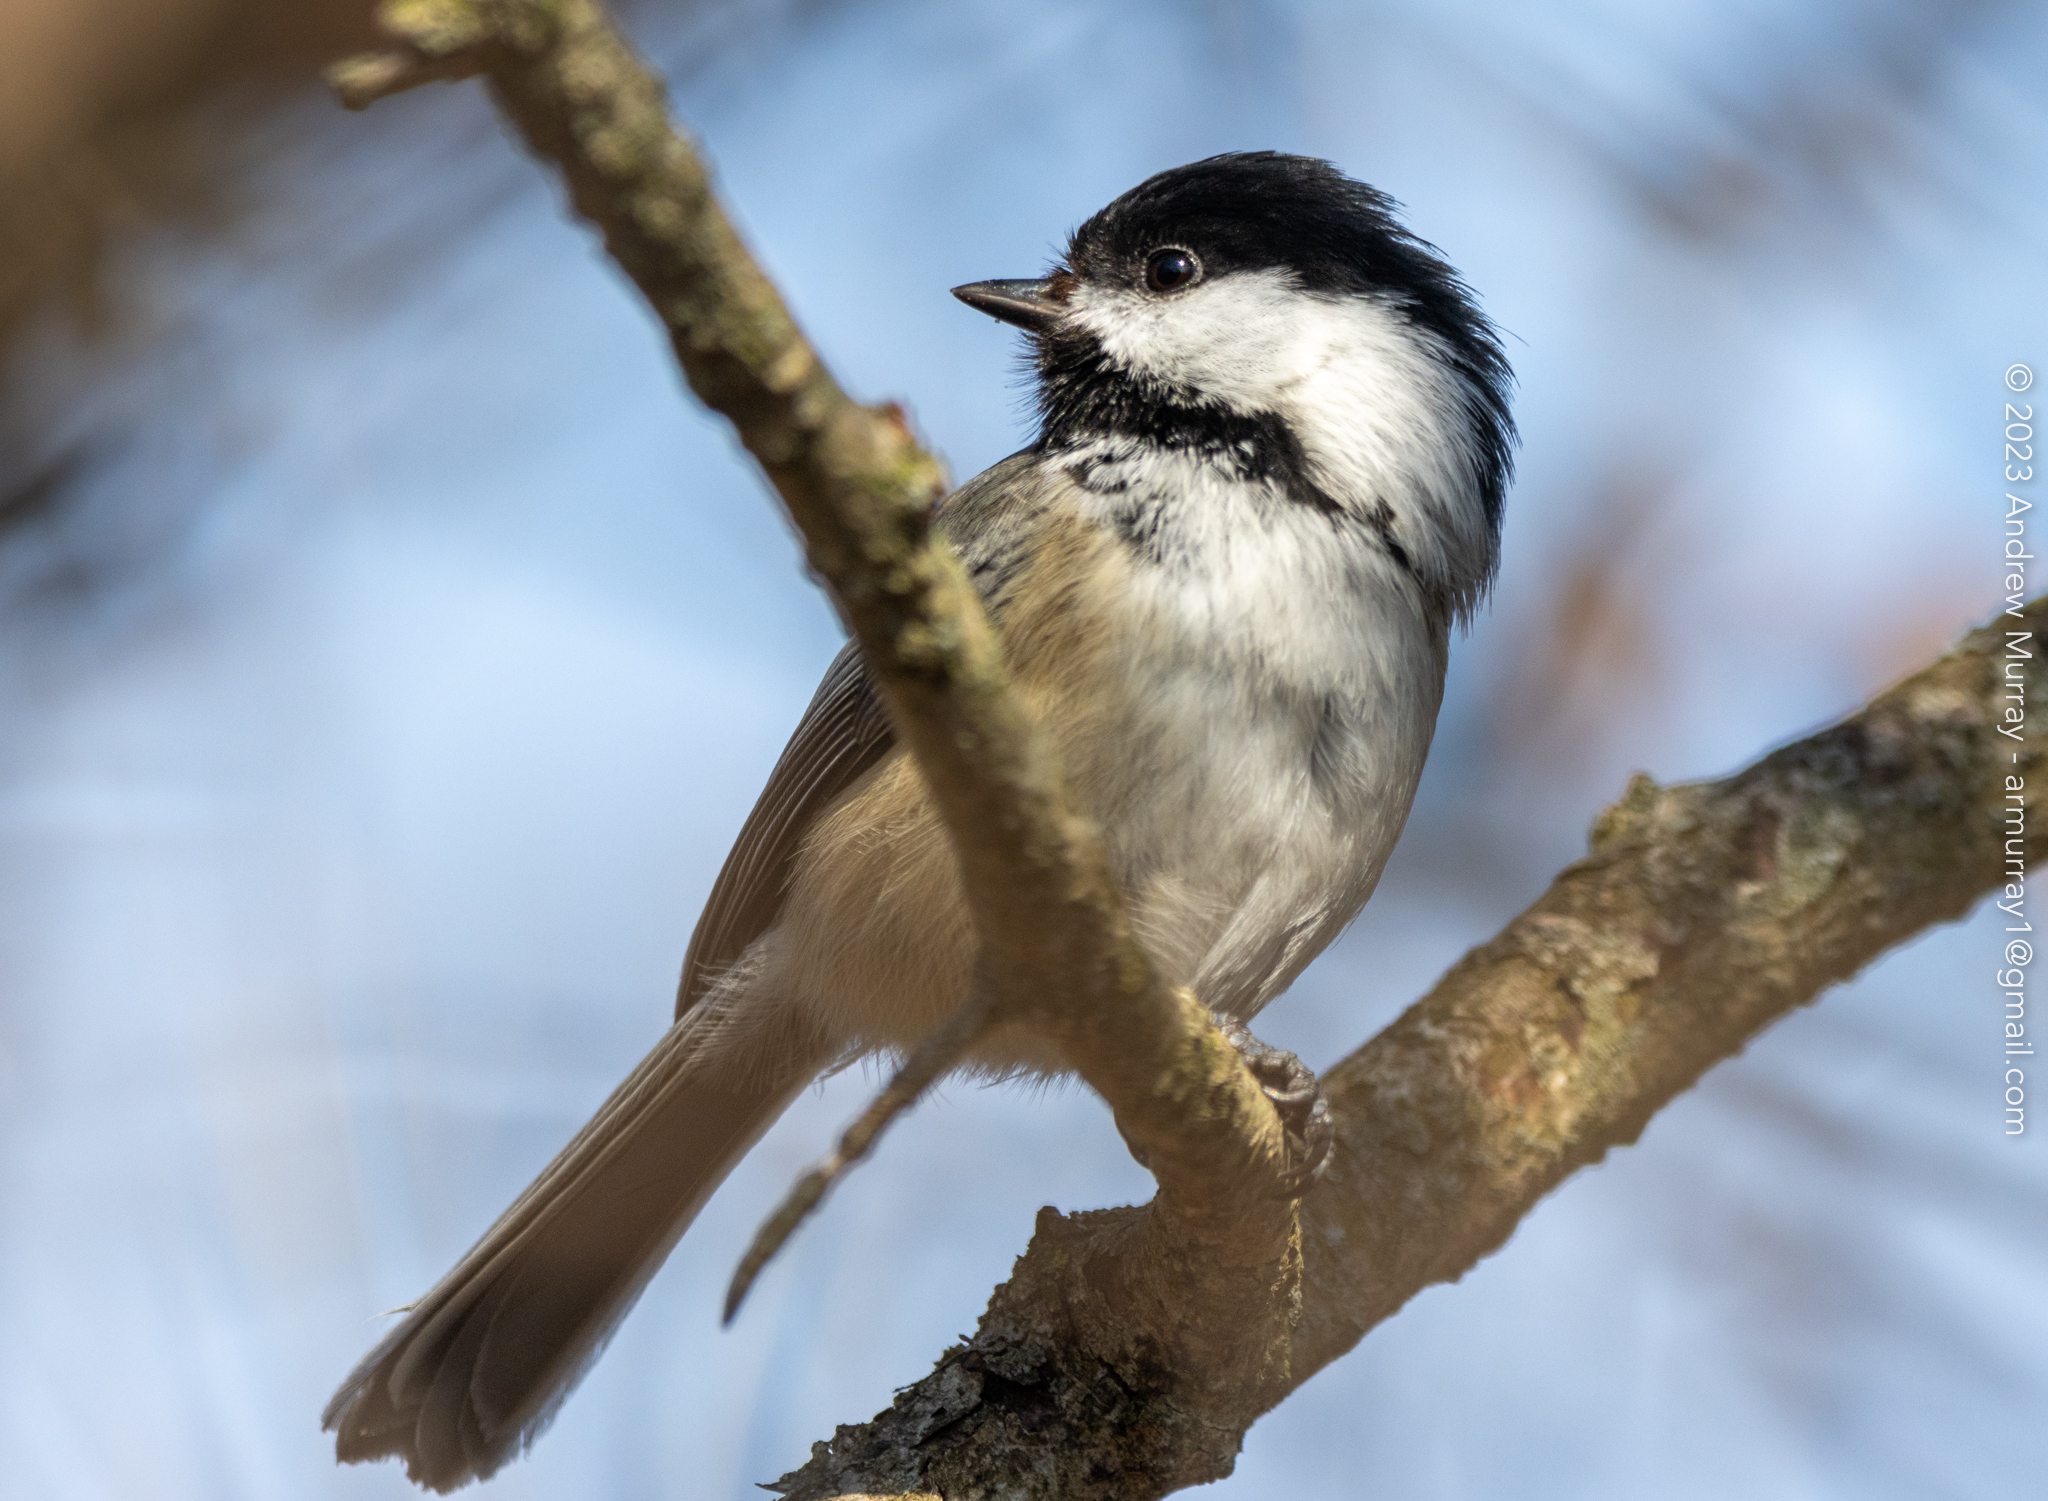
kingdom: Animalia
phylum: Chordata
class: Aves
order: Passeriformes
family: Paridae
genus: Poecile
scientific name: Poecile atricapillus
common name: Black-capped chickadee
